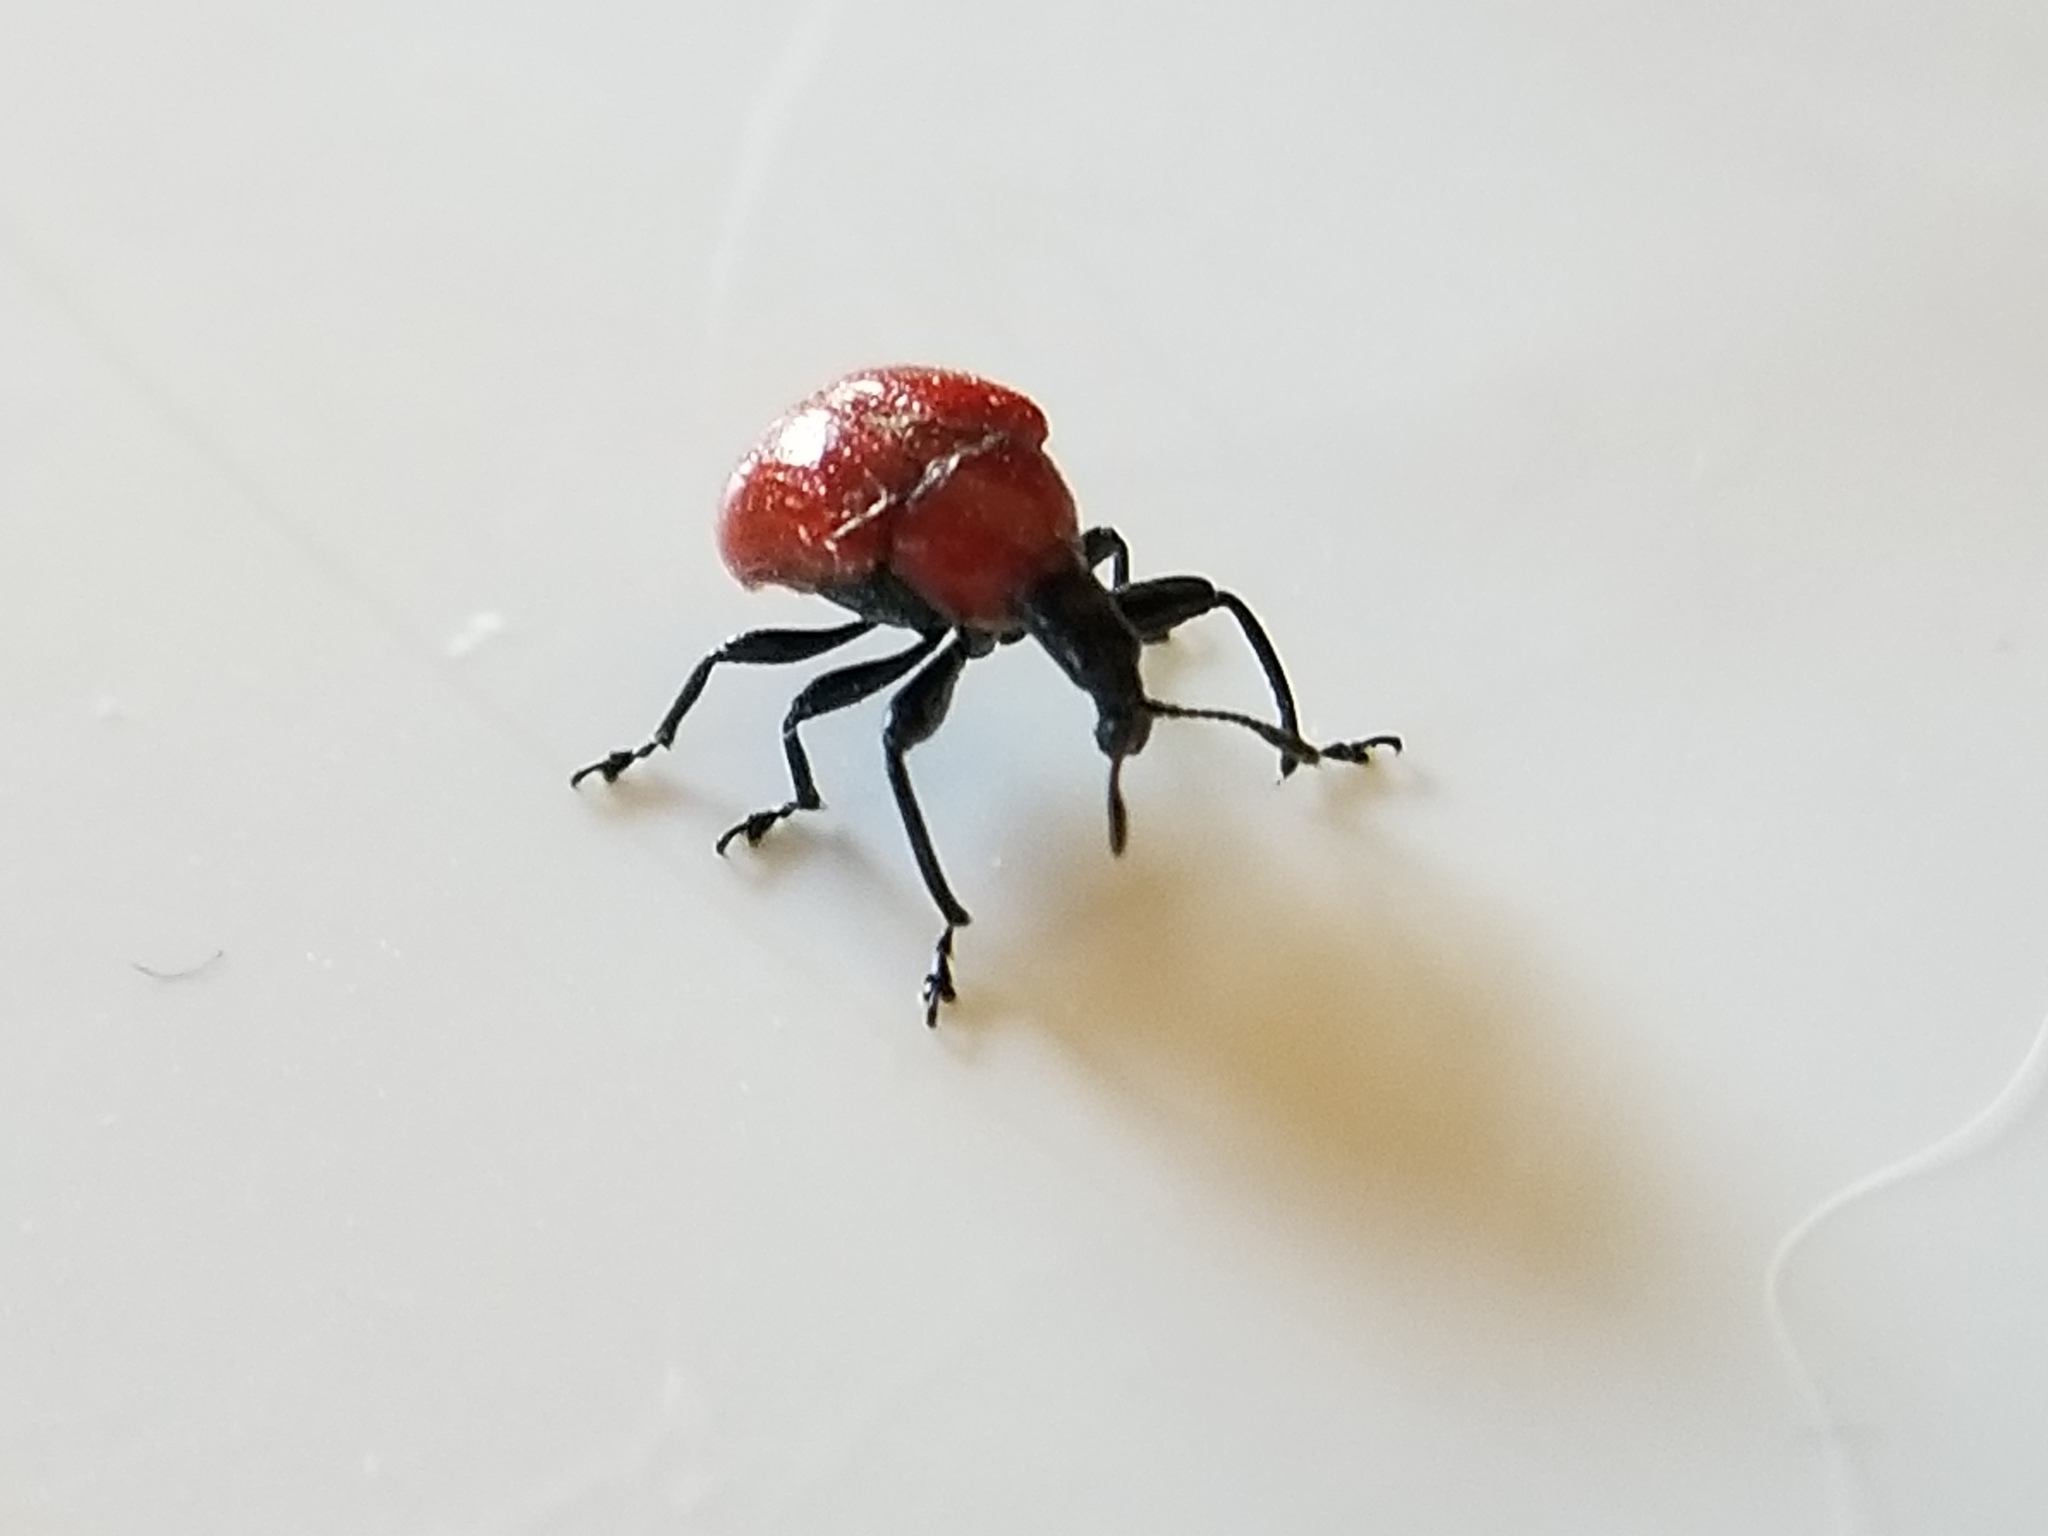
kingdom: Animalia
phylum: Arthropoda
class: Insecta
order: Coleoptera
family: Attelabidae
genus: Homoeolabus
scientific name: Homoeolabus analis
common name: Oak leaf rolling weevil
